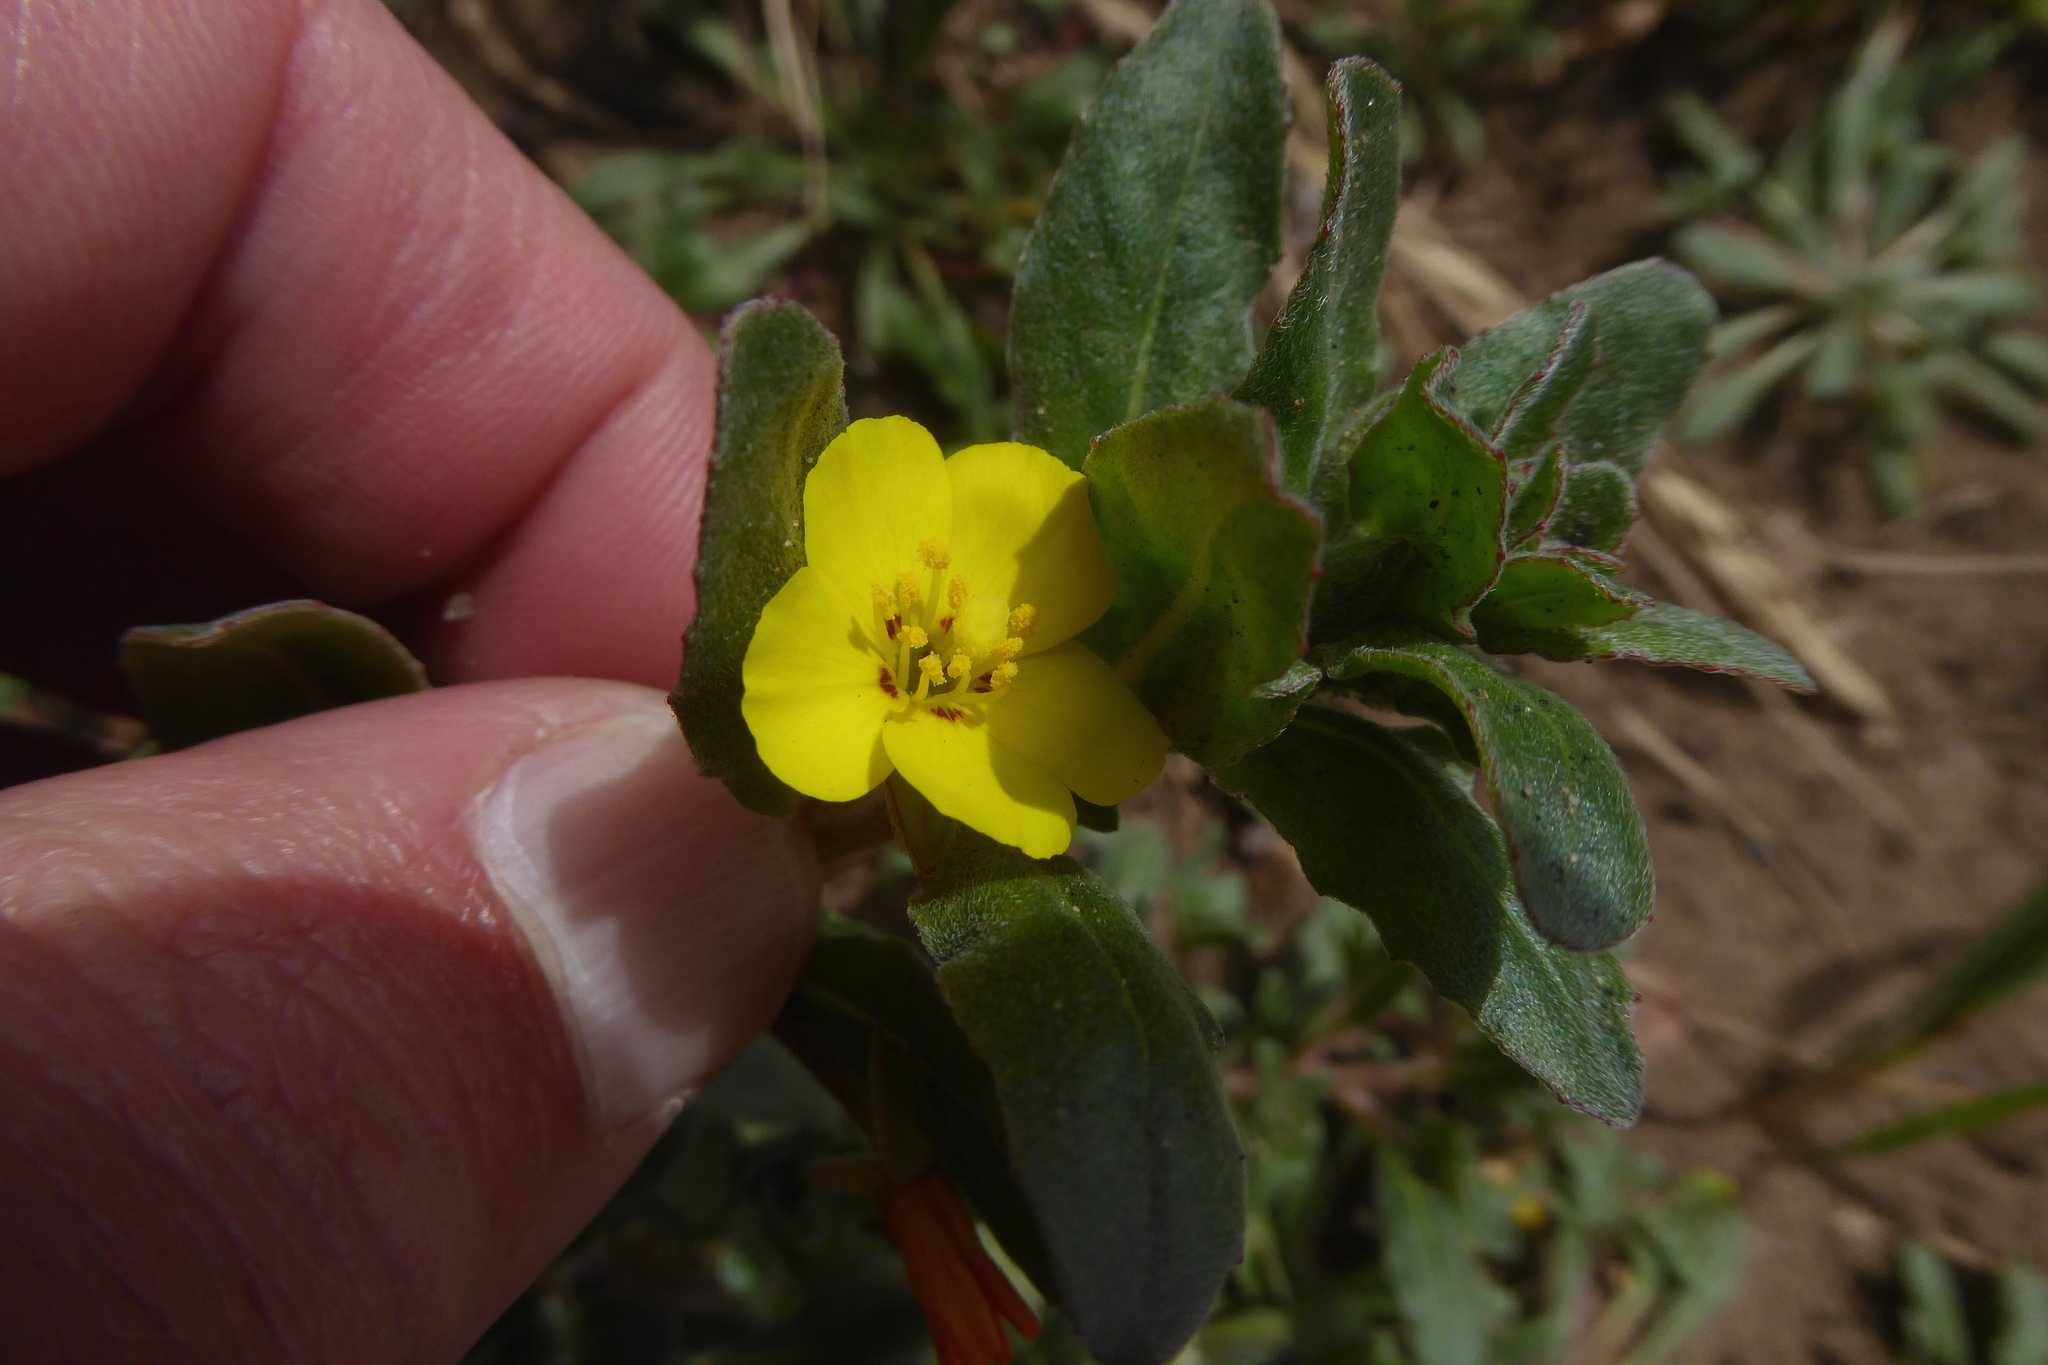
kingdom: Plantae
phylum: Tracheophyta
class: Magnoliopsida
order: Myrtales
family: Onagraceae
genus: Camissoniopsis
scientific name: Camissoniopsis cheiranthifolia
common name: Beach suncup
